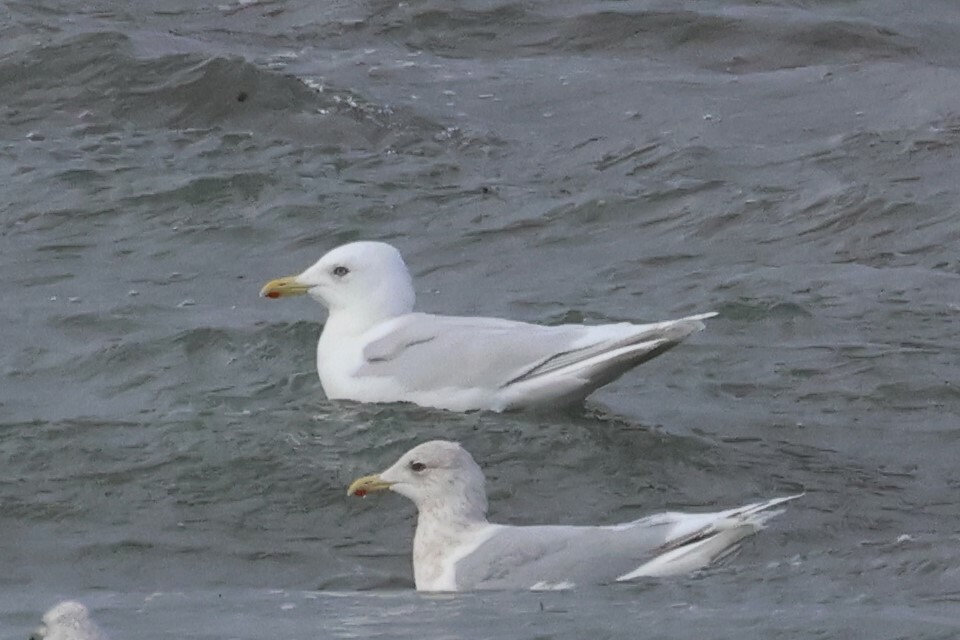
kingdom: Animalia
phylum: Chordata
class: Aves
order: Charadriiformes
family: Laridae
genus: Larus
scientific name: Larus glaucoides
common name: Iceland gull
